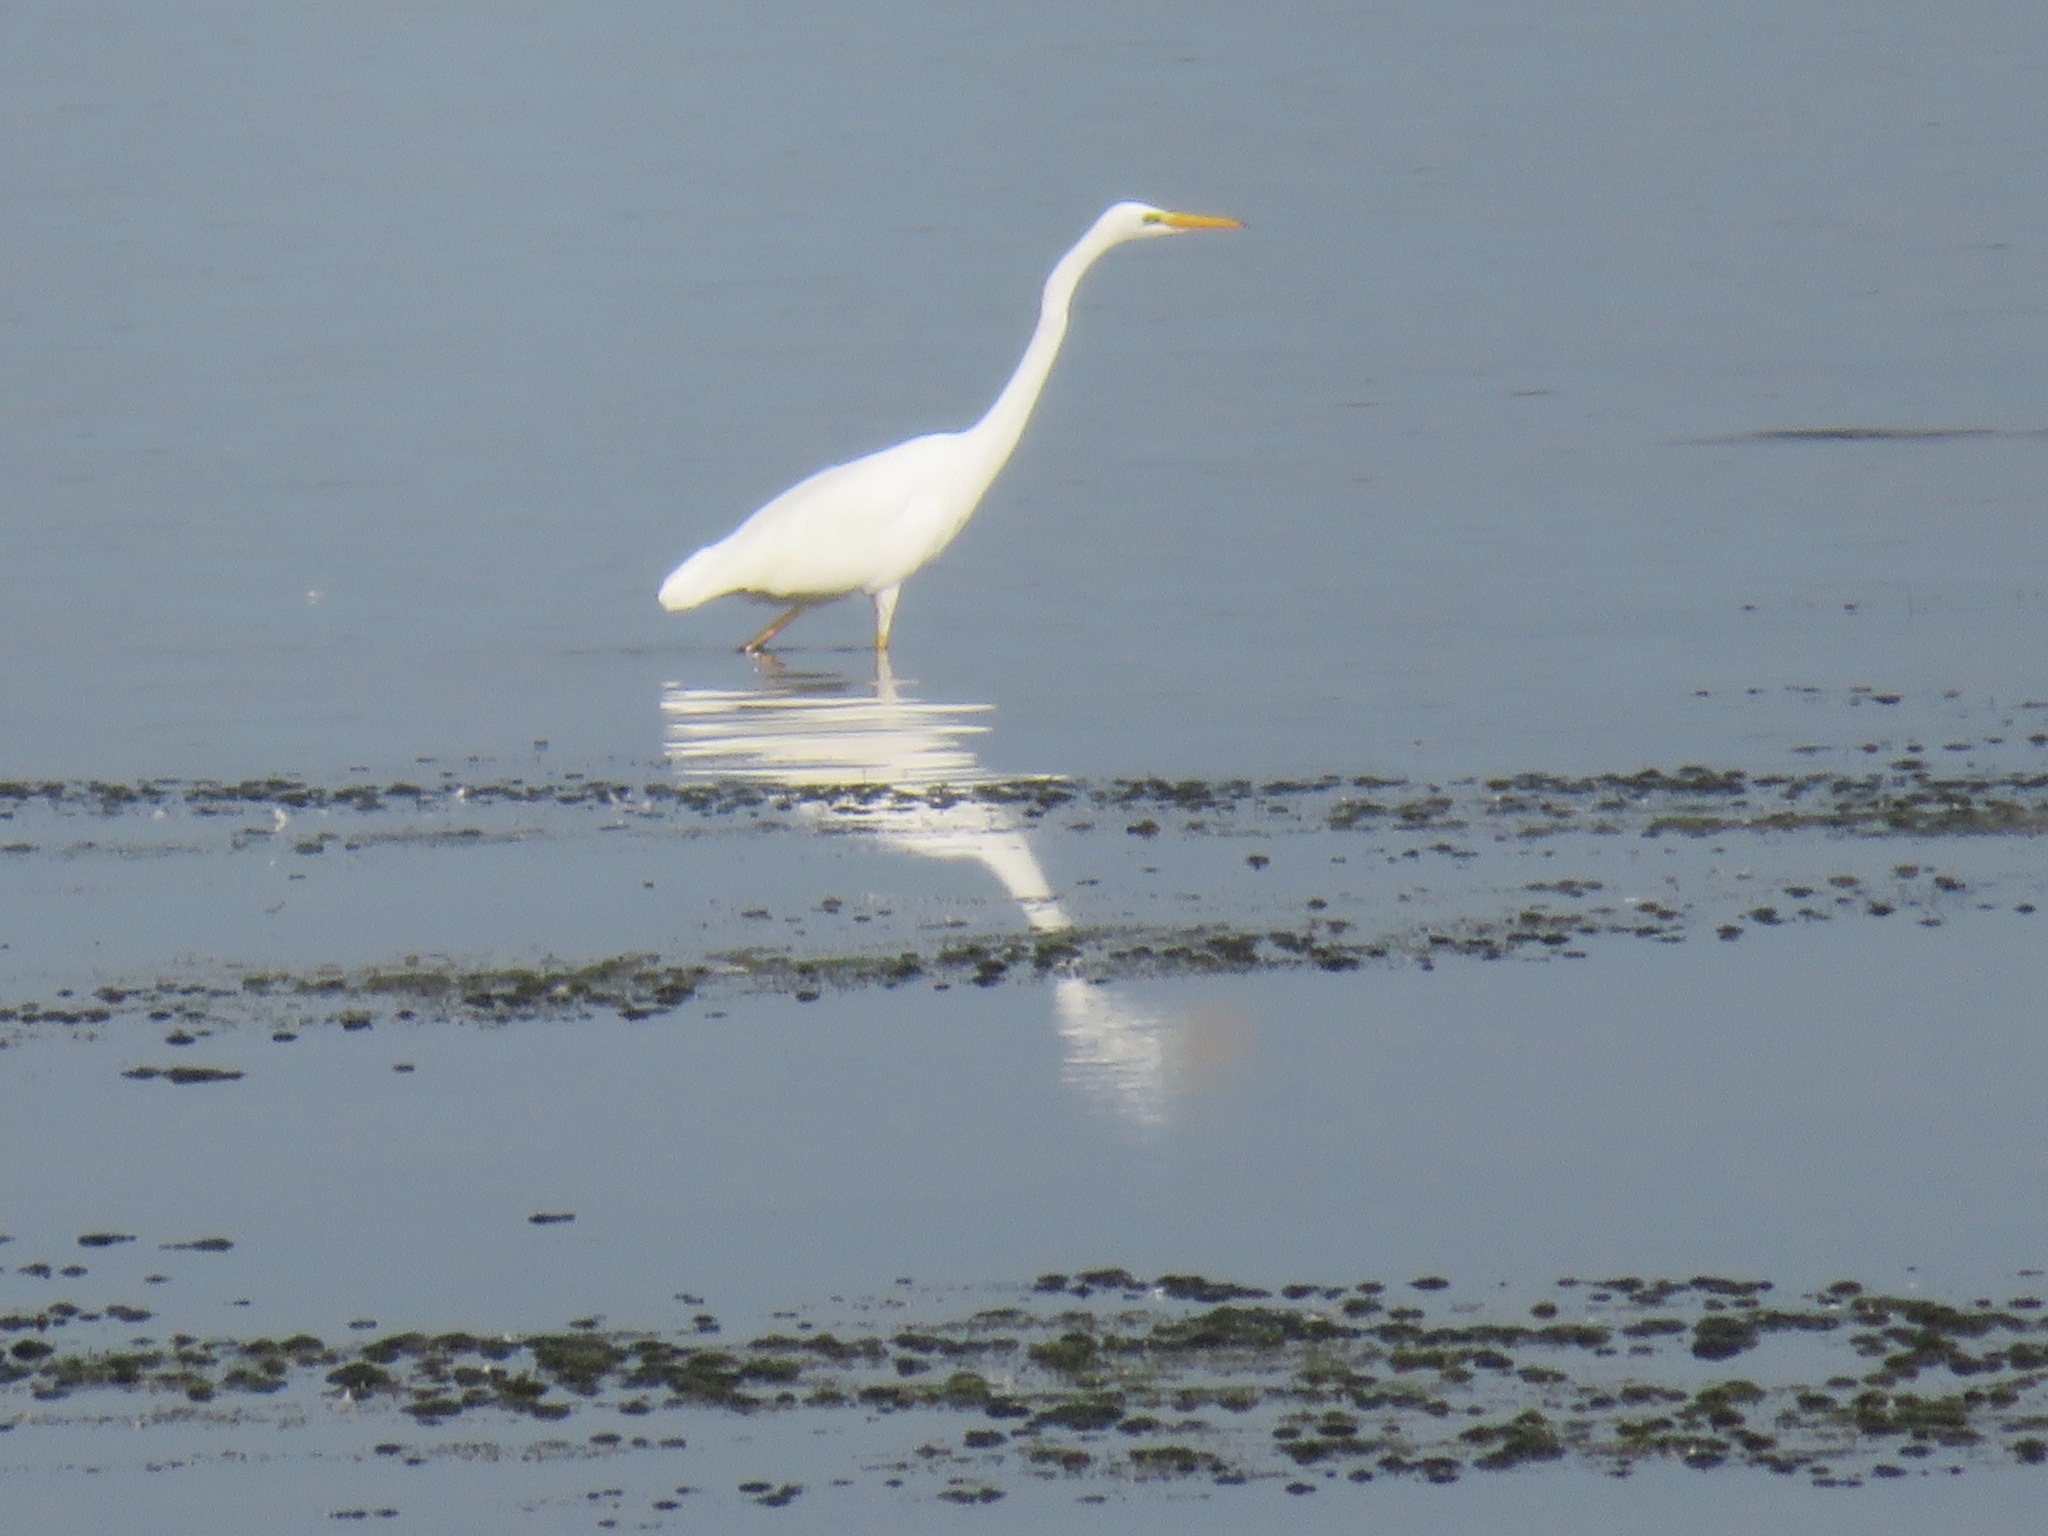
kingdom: Animalia
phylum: Chordata
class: Aves
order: Pelecaniformes
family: Ardeidae
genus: Ardea
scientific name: Ardea alba
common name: Great egret
